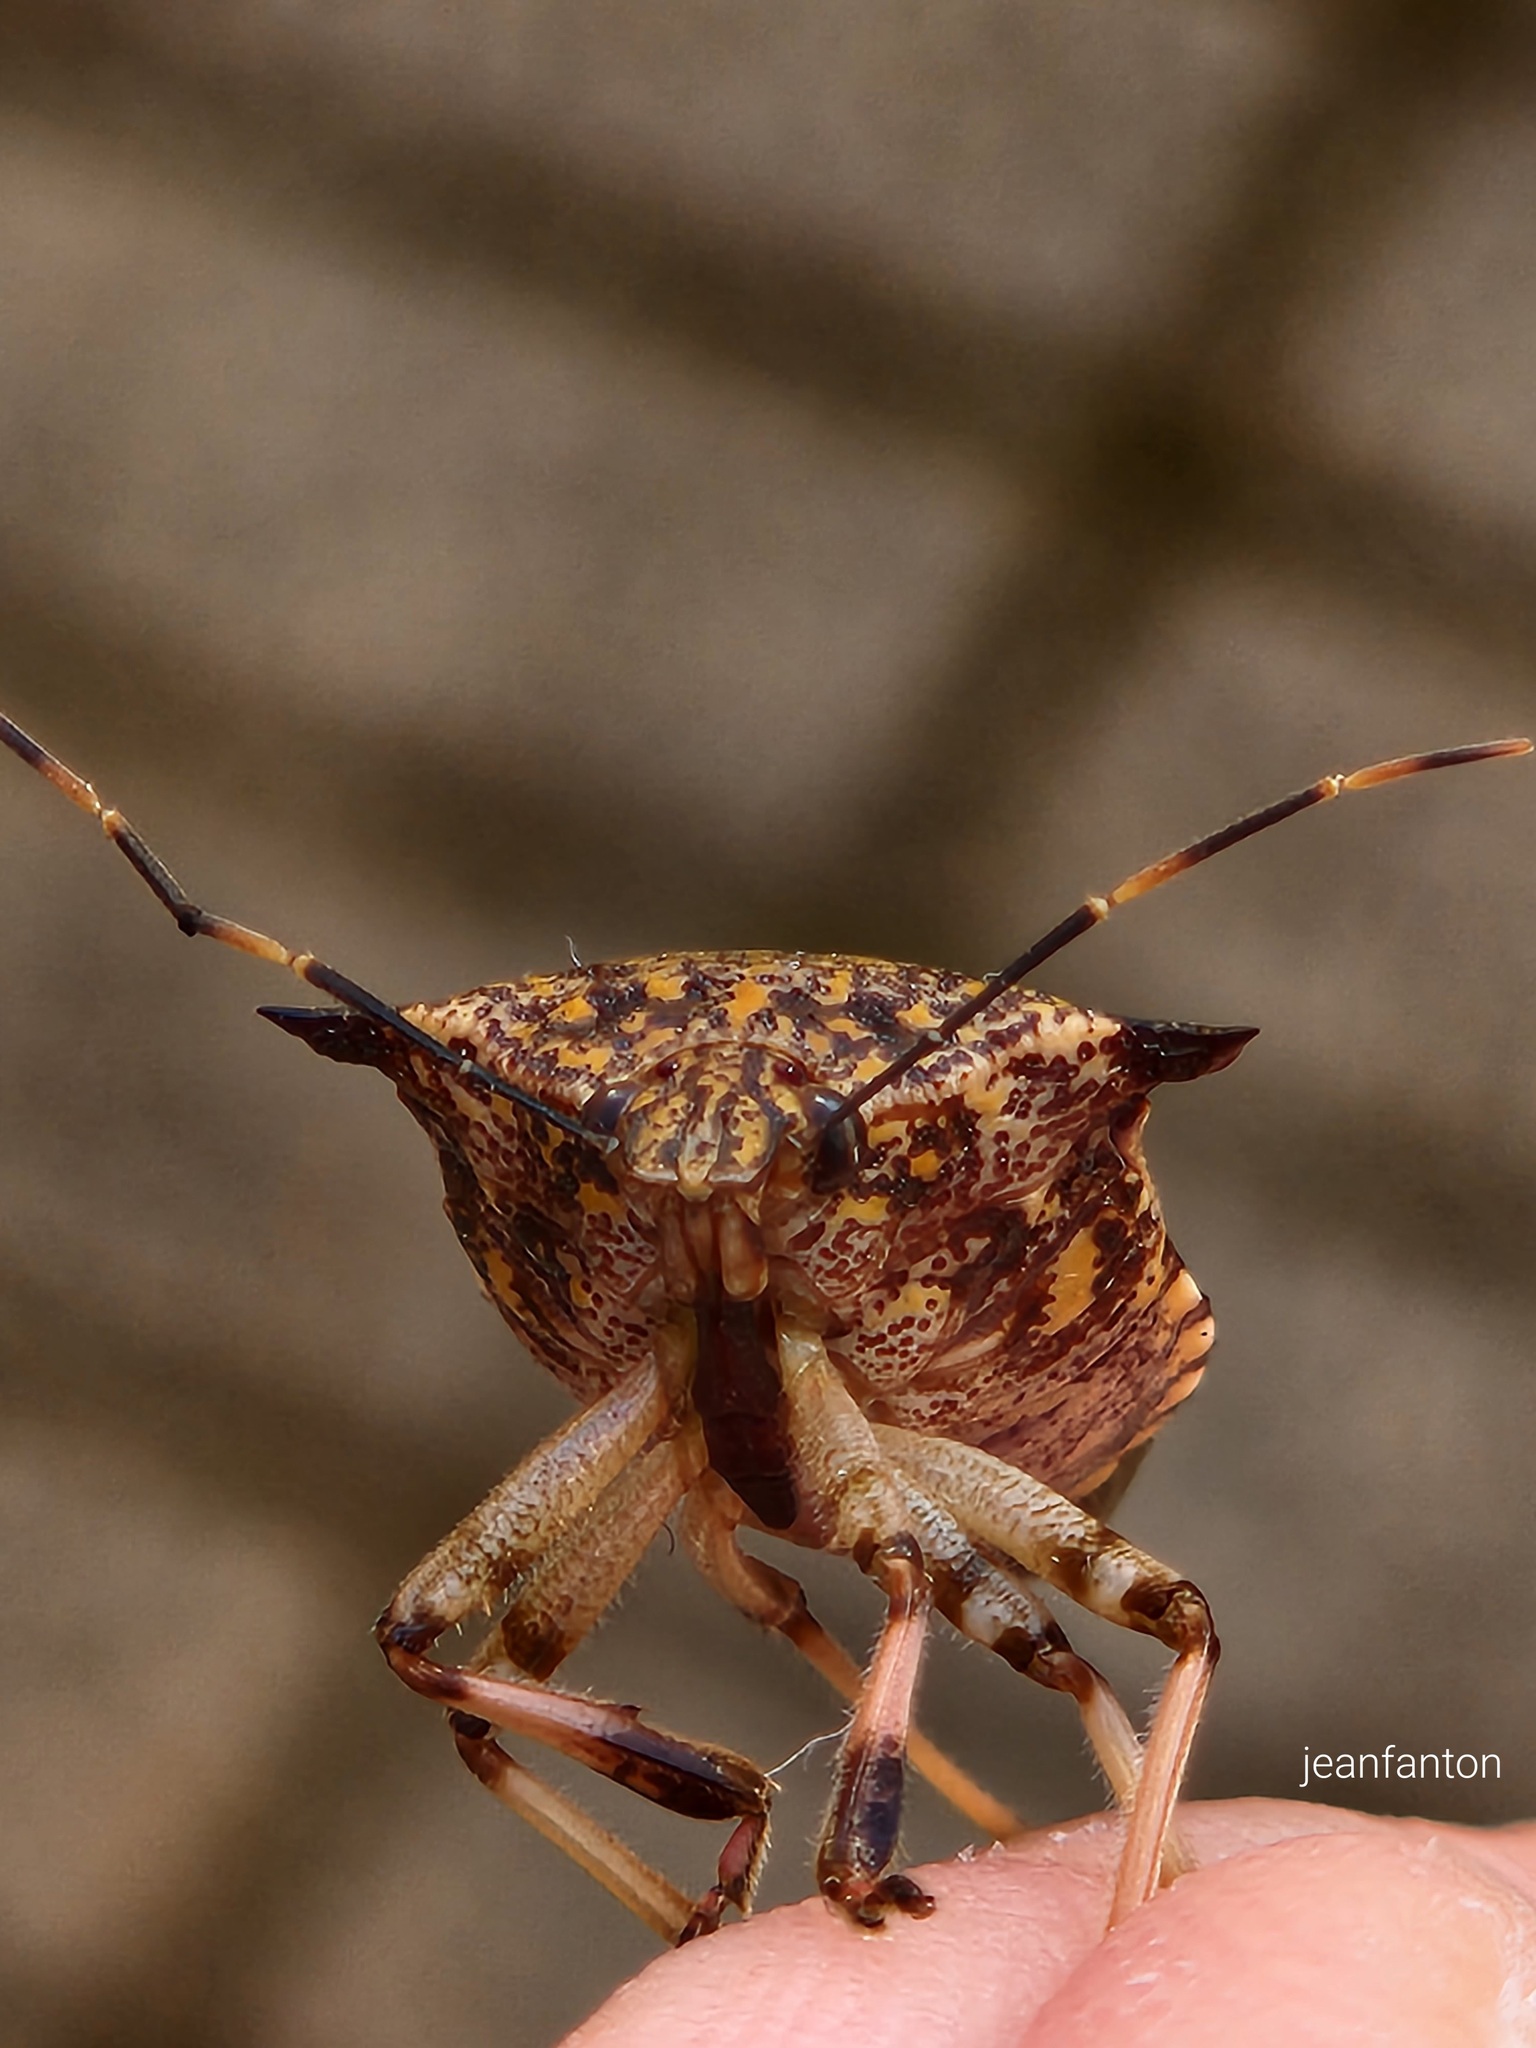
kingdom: Animalia
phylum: Arthropoda
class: Insecta
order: Hemiptera
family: Pentatomidae
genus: Alcaeorrhynchus
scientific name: Alcaeorrhynchus grandis
